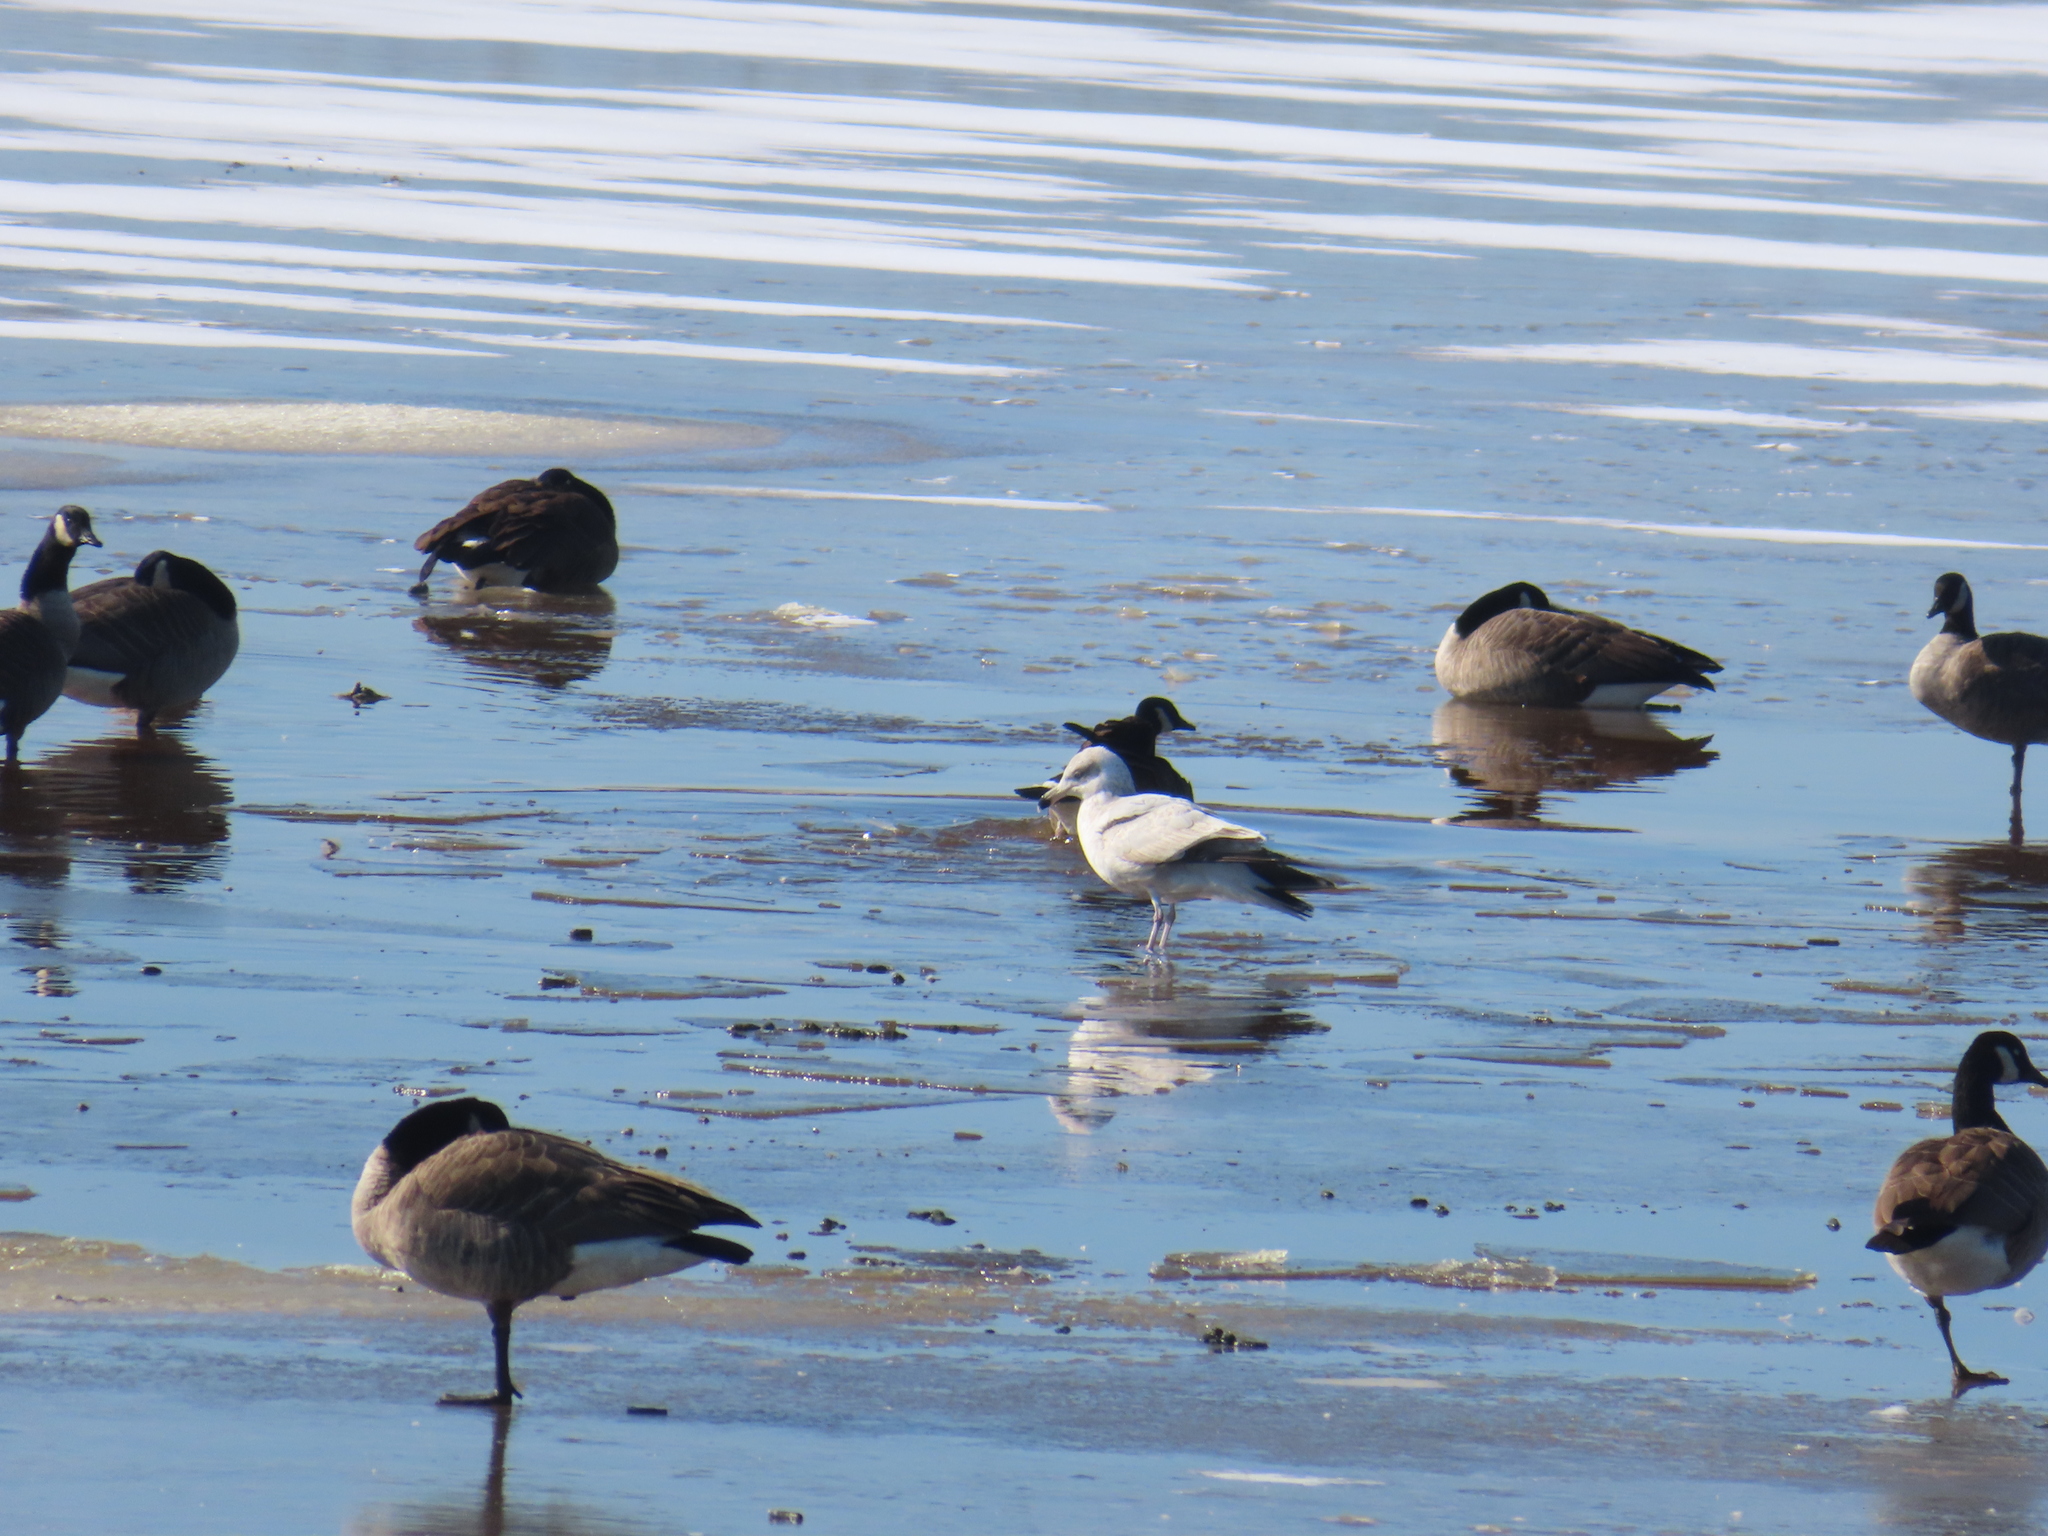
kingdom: Animalia
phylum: Chordata
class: Aves
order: Charadriiformes
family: Laridae
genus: Larus
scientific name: Larus argentatus
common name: Herring gull
